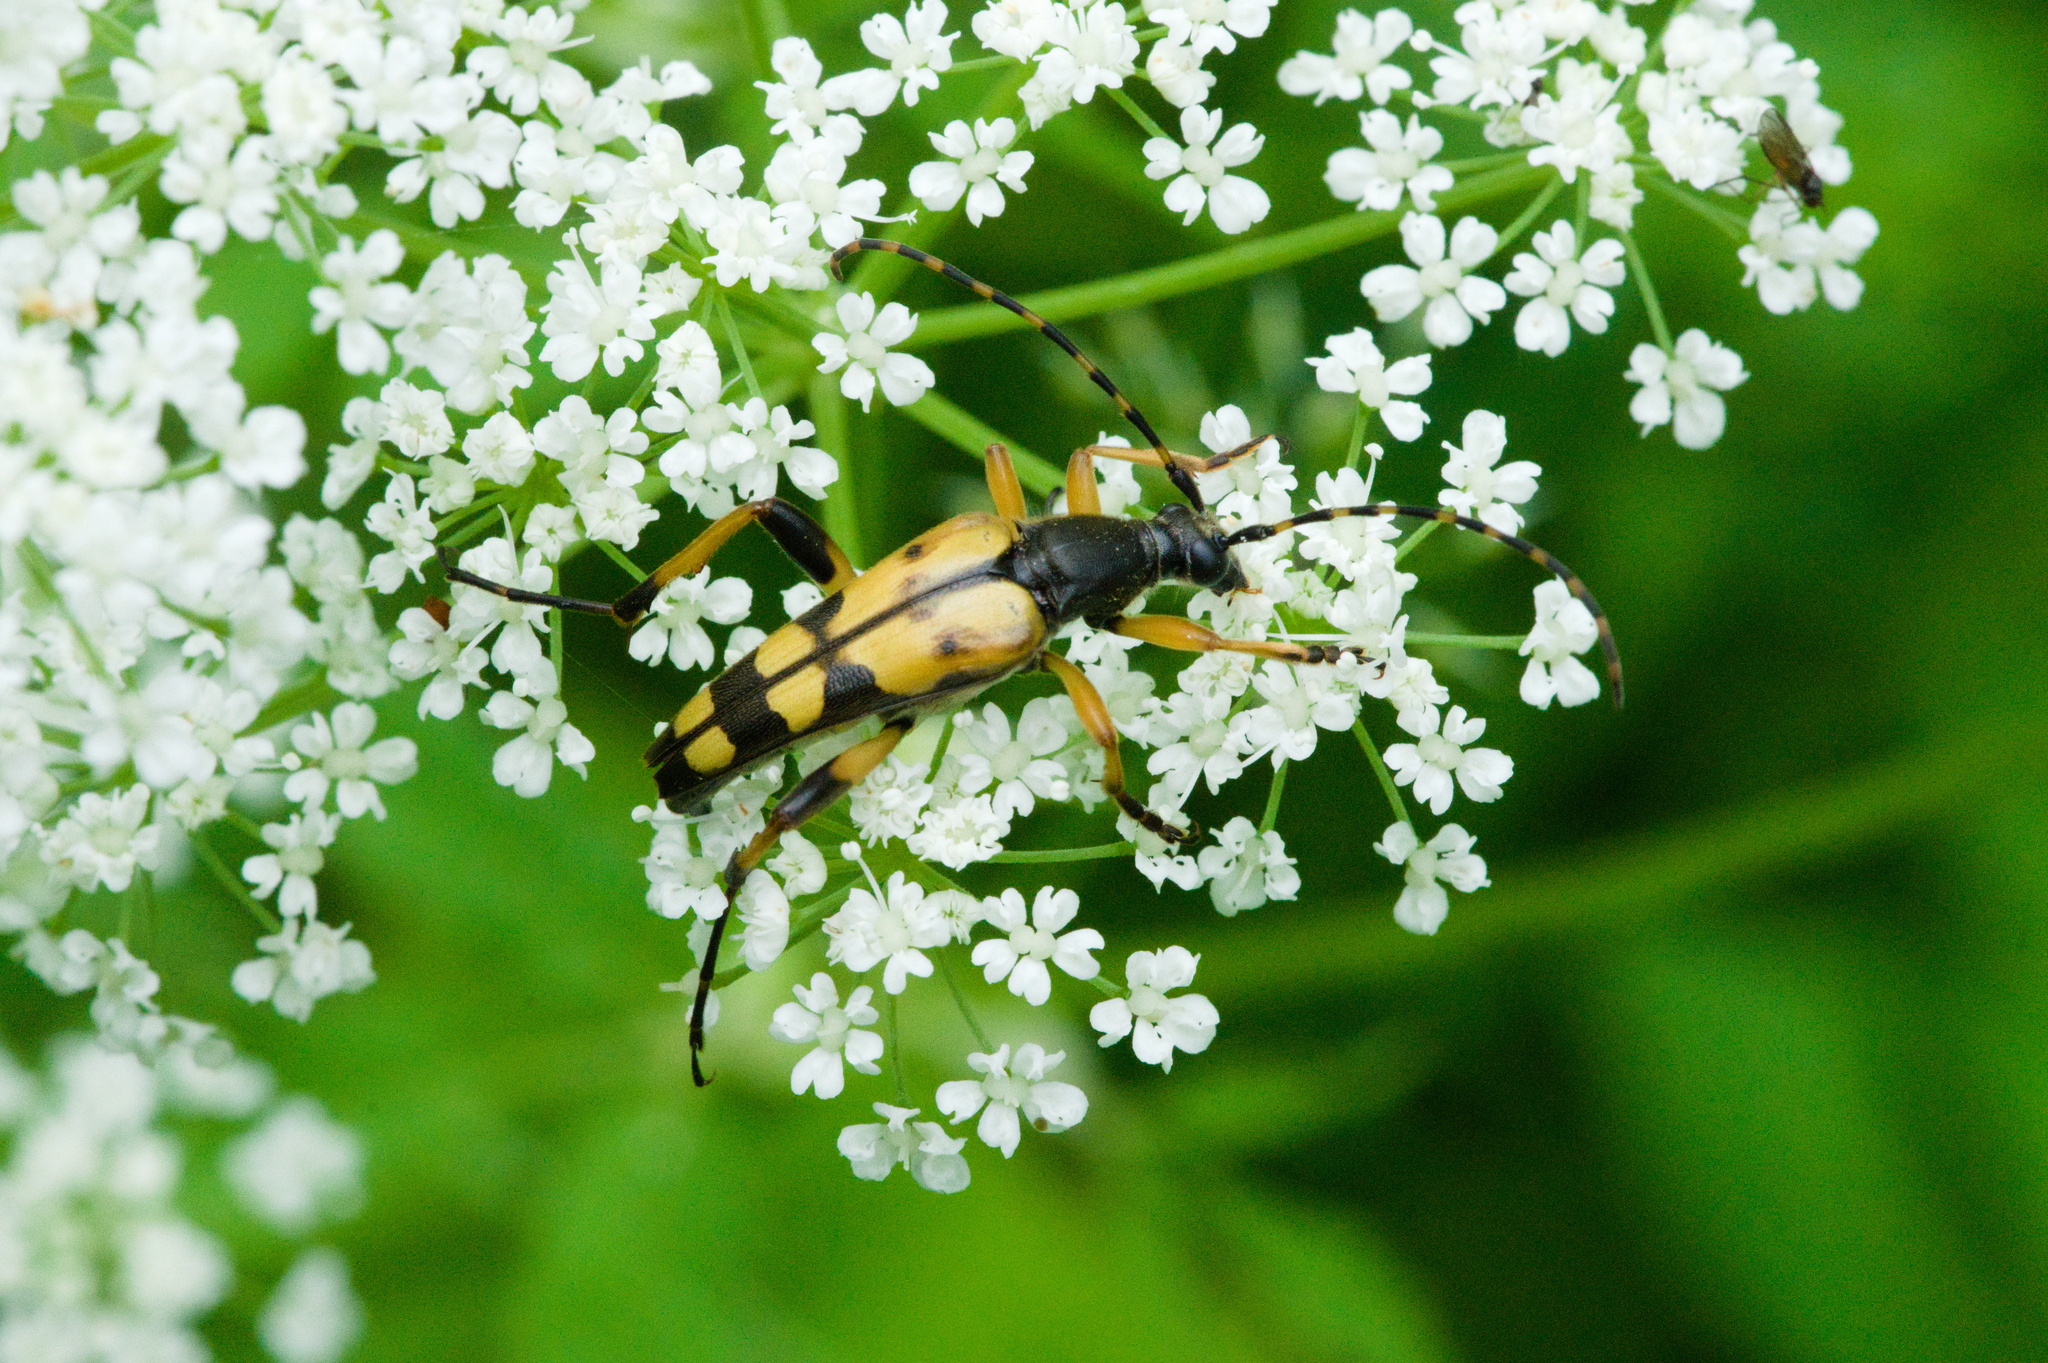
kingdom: Animalia
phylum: Arthropoda
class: Insecta
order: Coleoptera
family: Cerambycidae
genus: Rutpela
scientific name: Rutpela maculata
